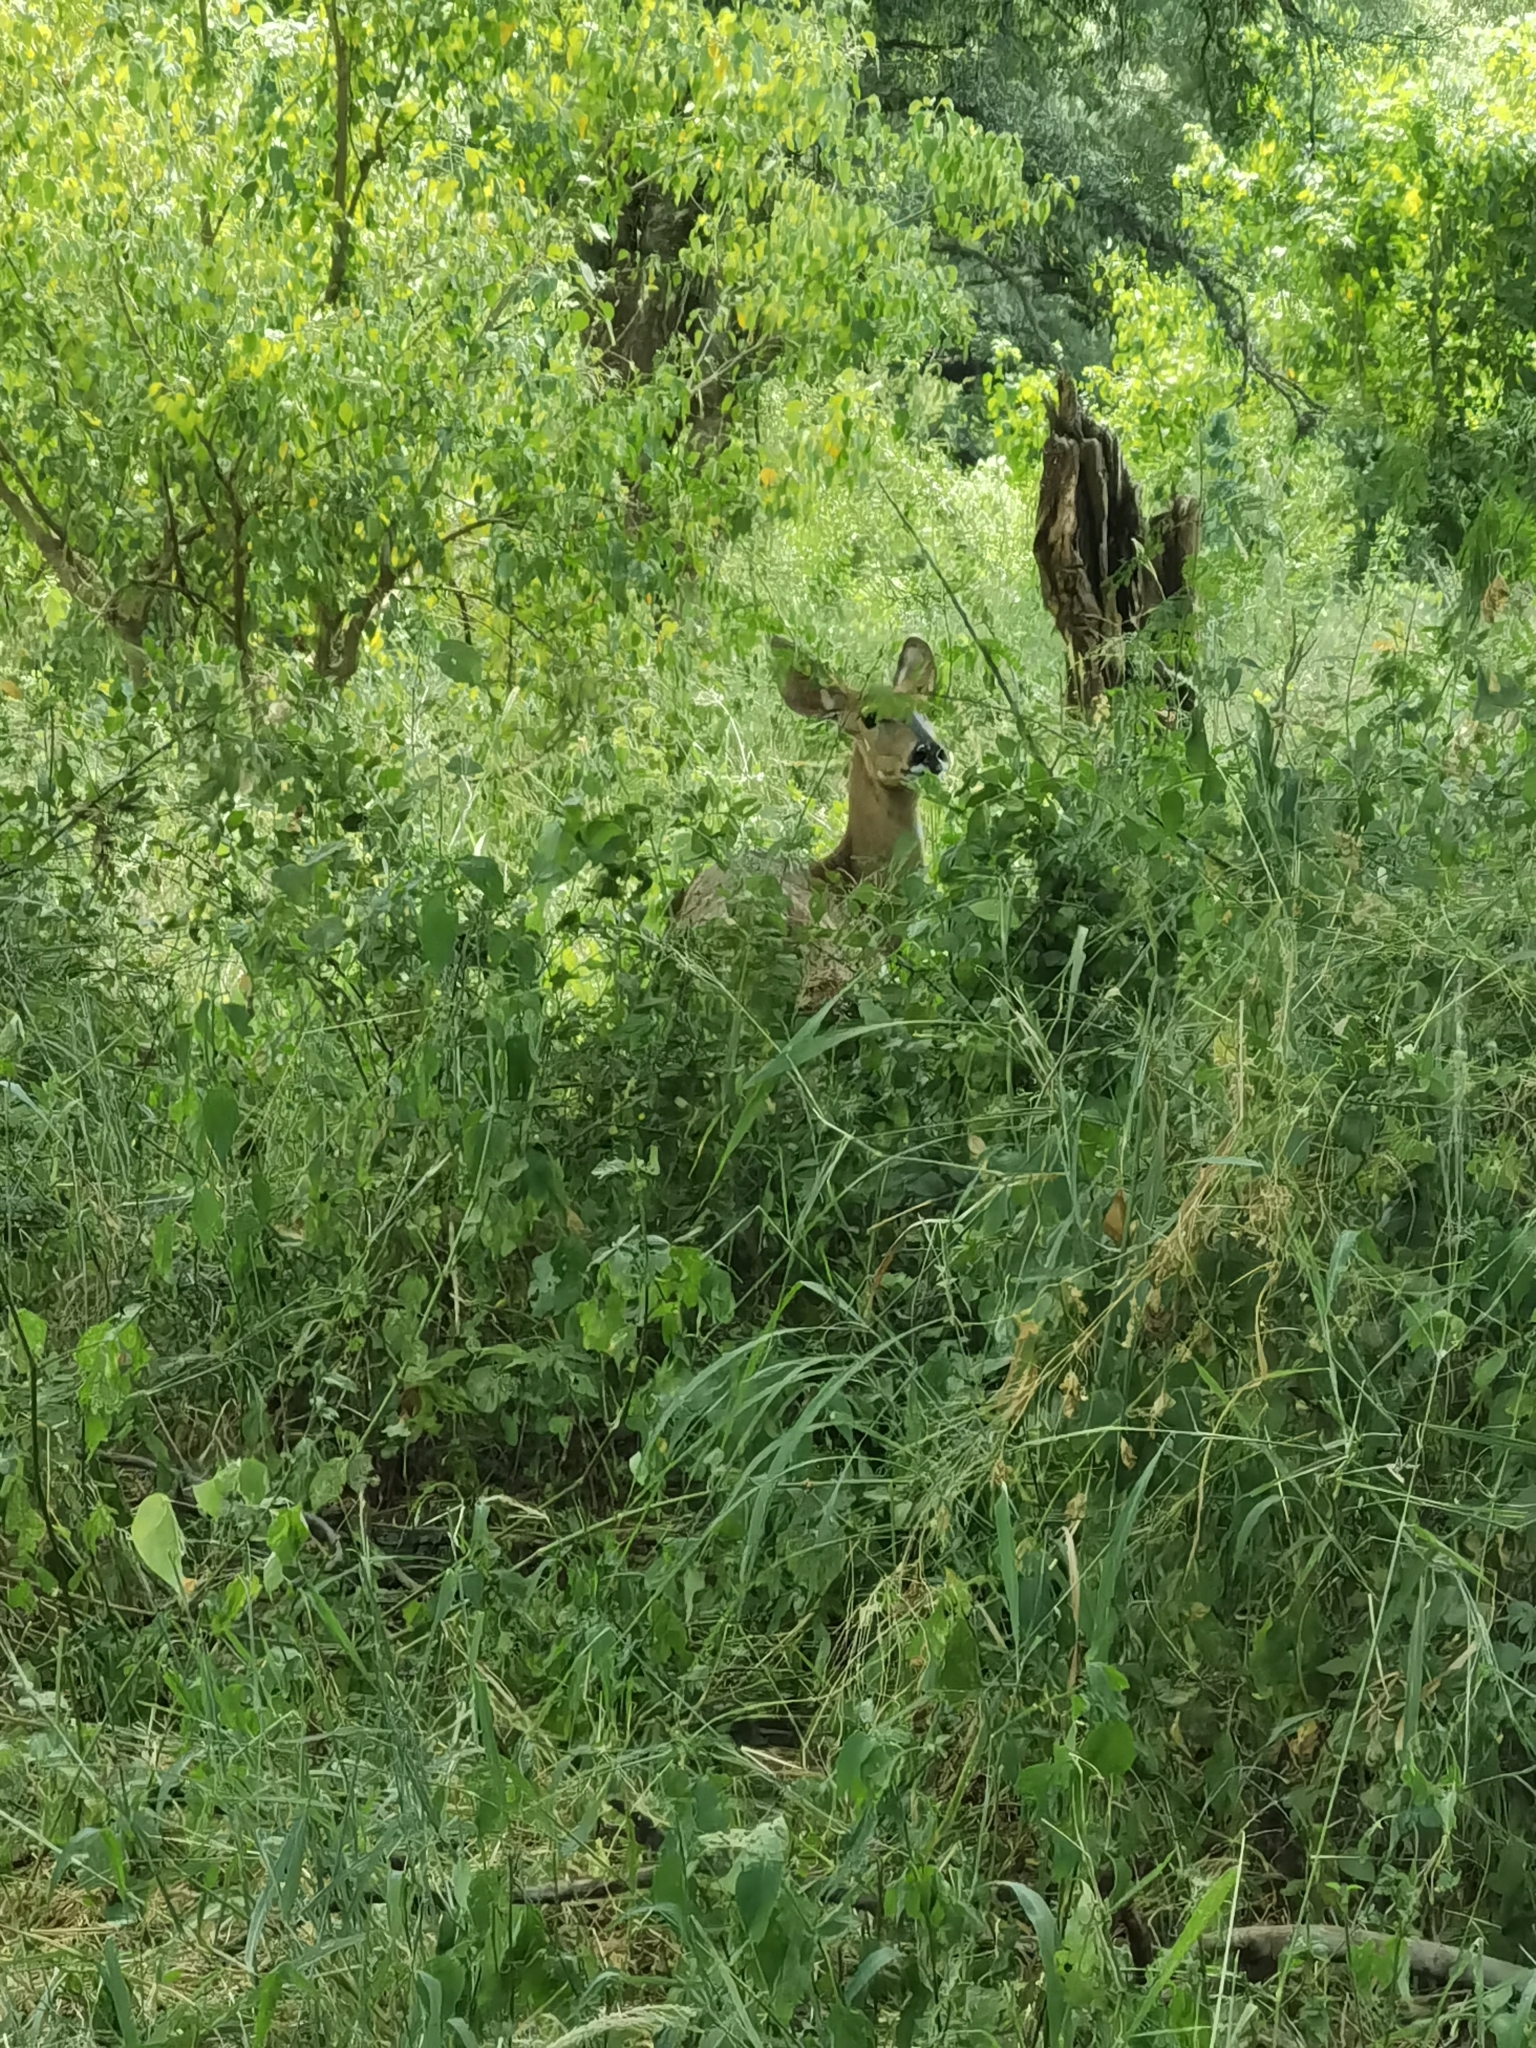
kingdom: Animalia
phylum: Chordata
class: Mammalia
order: Artiodactyla
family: Bovidae
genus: Tragelaphus
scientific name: Tragelaphus strepsiceros
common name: Greater kudu
